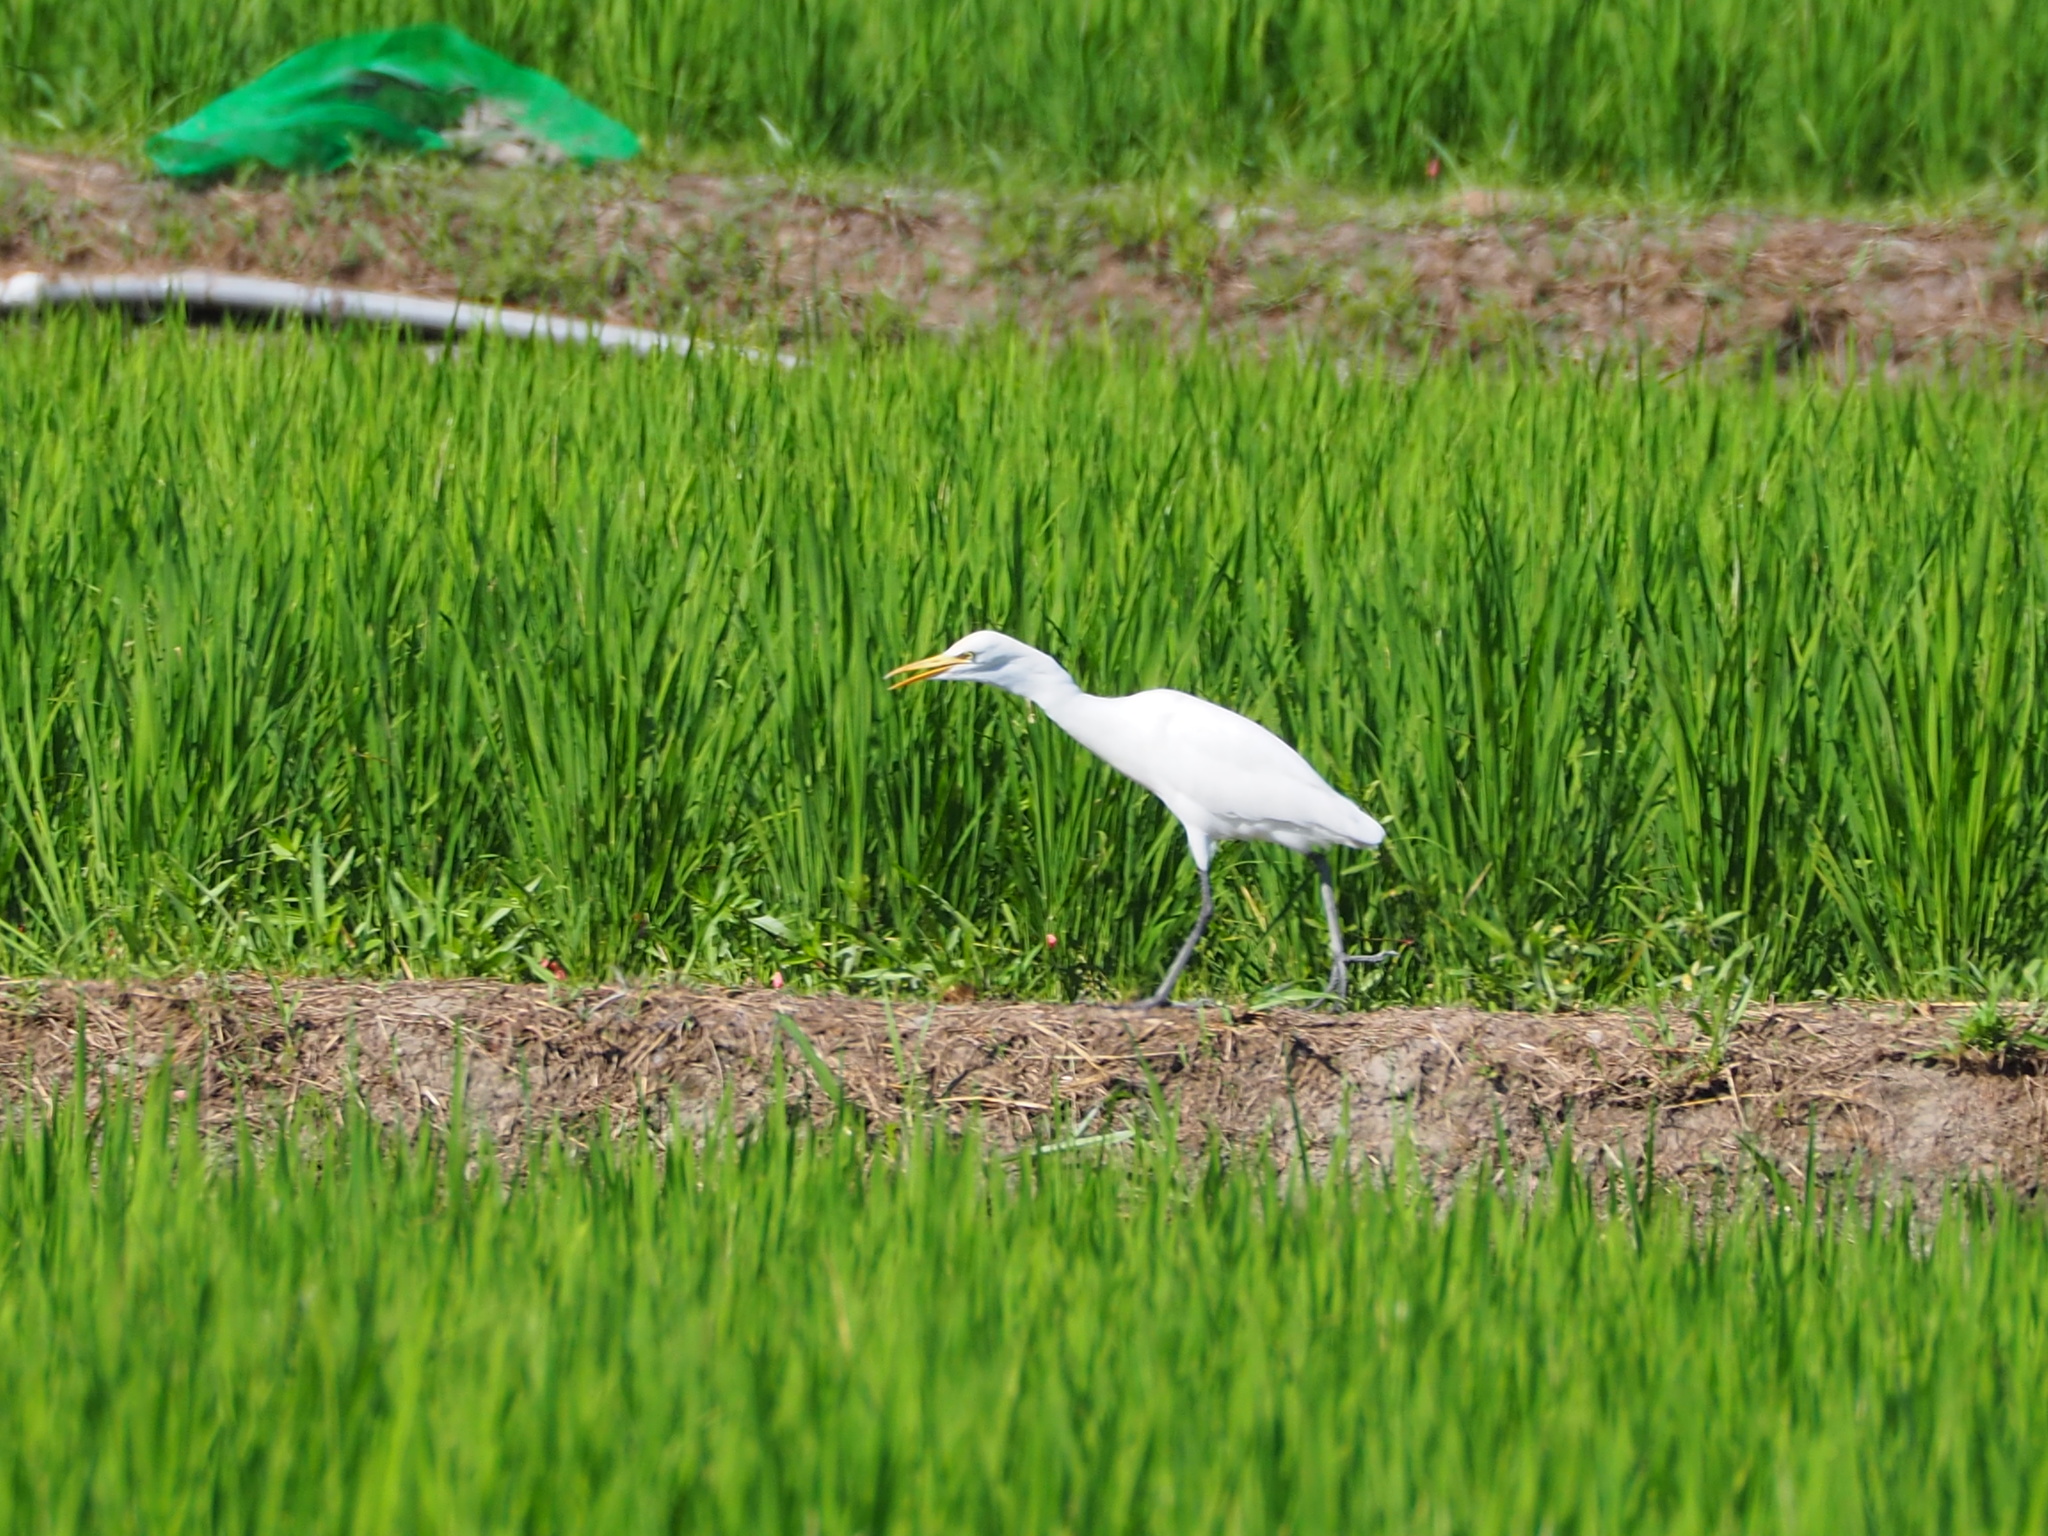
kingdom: Animalia
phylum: Chordata
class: Aves
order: Pelecaniformes
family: Ardeidae
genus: Bubulcus
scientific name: Bubulcus coromandus
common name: Eastern cattle egret
